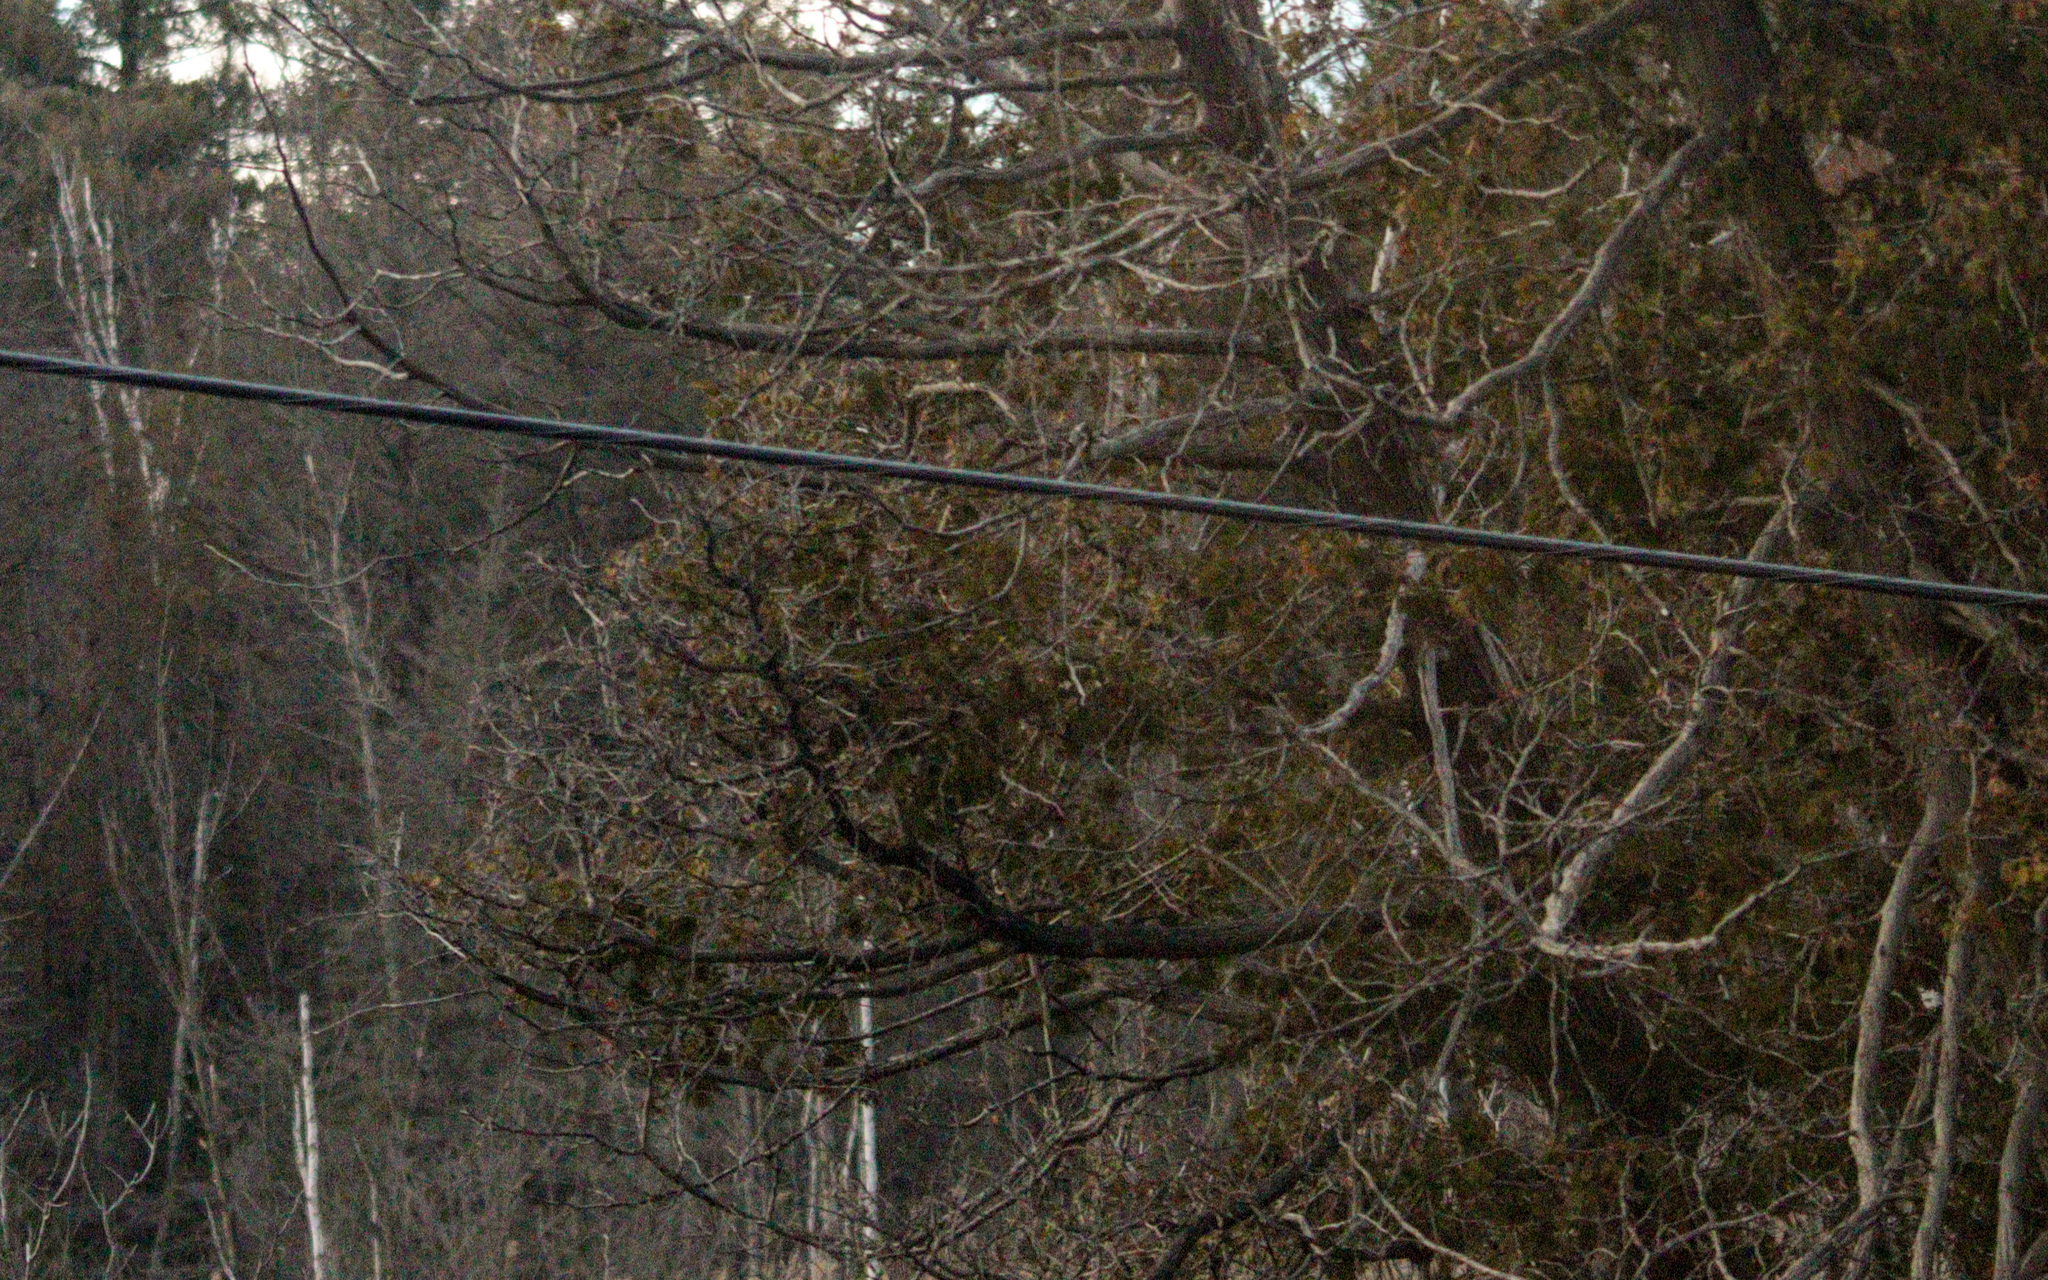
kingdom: Plantae
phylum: Tracheophyta
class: Pinopsida
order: Pinales
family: Cupressaceae
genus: Thuja
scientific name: Thuja occidentalis
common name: Northern white-cedar
